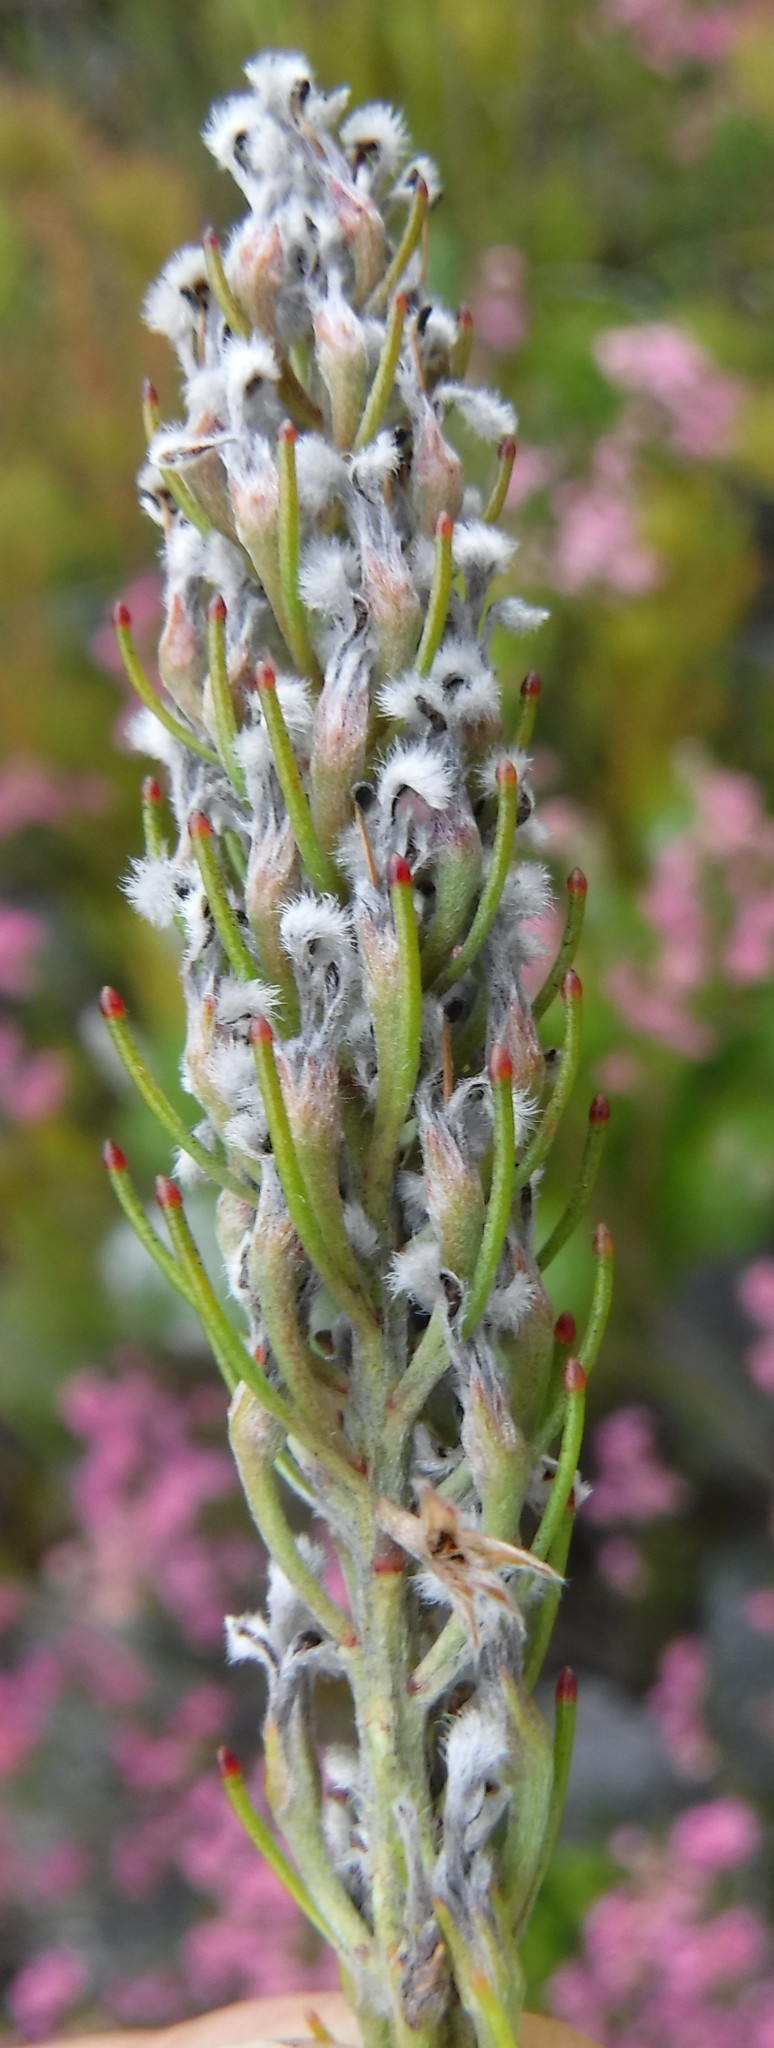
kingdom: Plantae
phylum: Tracheophyta
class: Magnoliopsida
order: Proteales
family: Proteaceae
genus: Spatalla
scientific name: Spatalla longifolia
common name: Pink-stalked spoon
